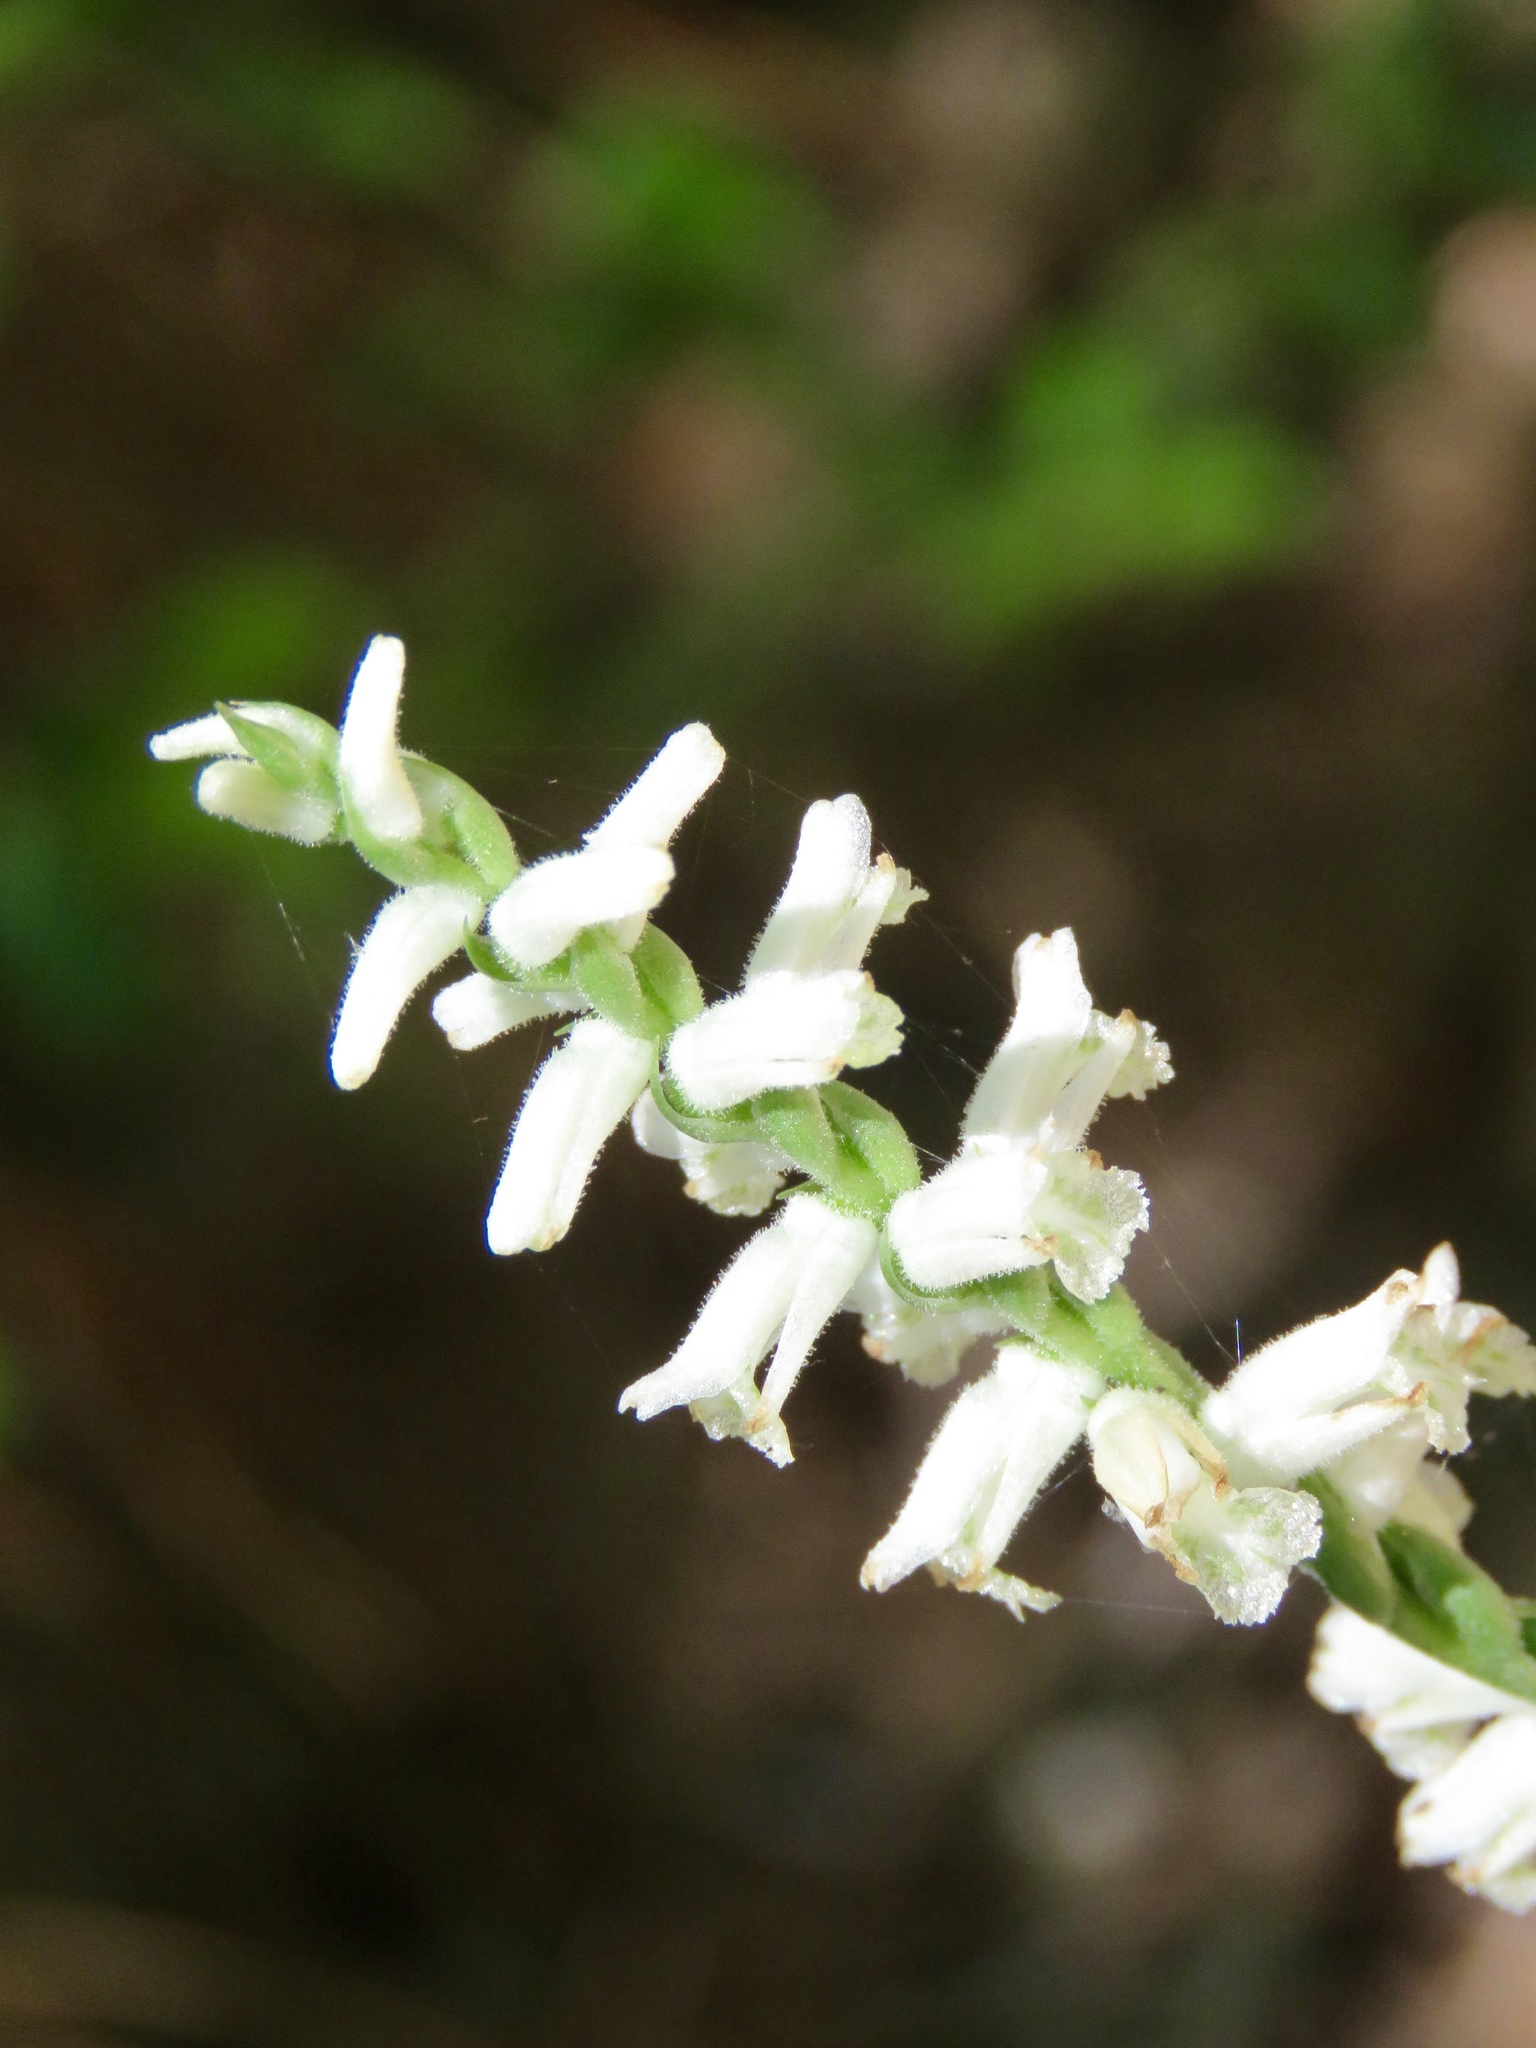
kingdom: Plantae
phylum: Tracheophyta
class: Liliopsida
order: Asparagales
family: Orchidaceae
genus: Spiranthes
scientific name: Spiranthes praecox
